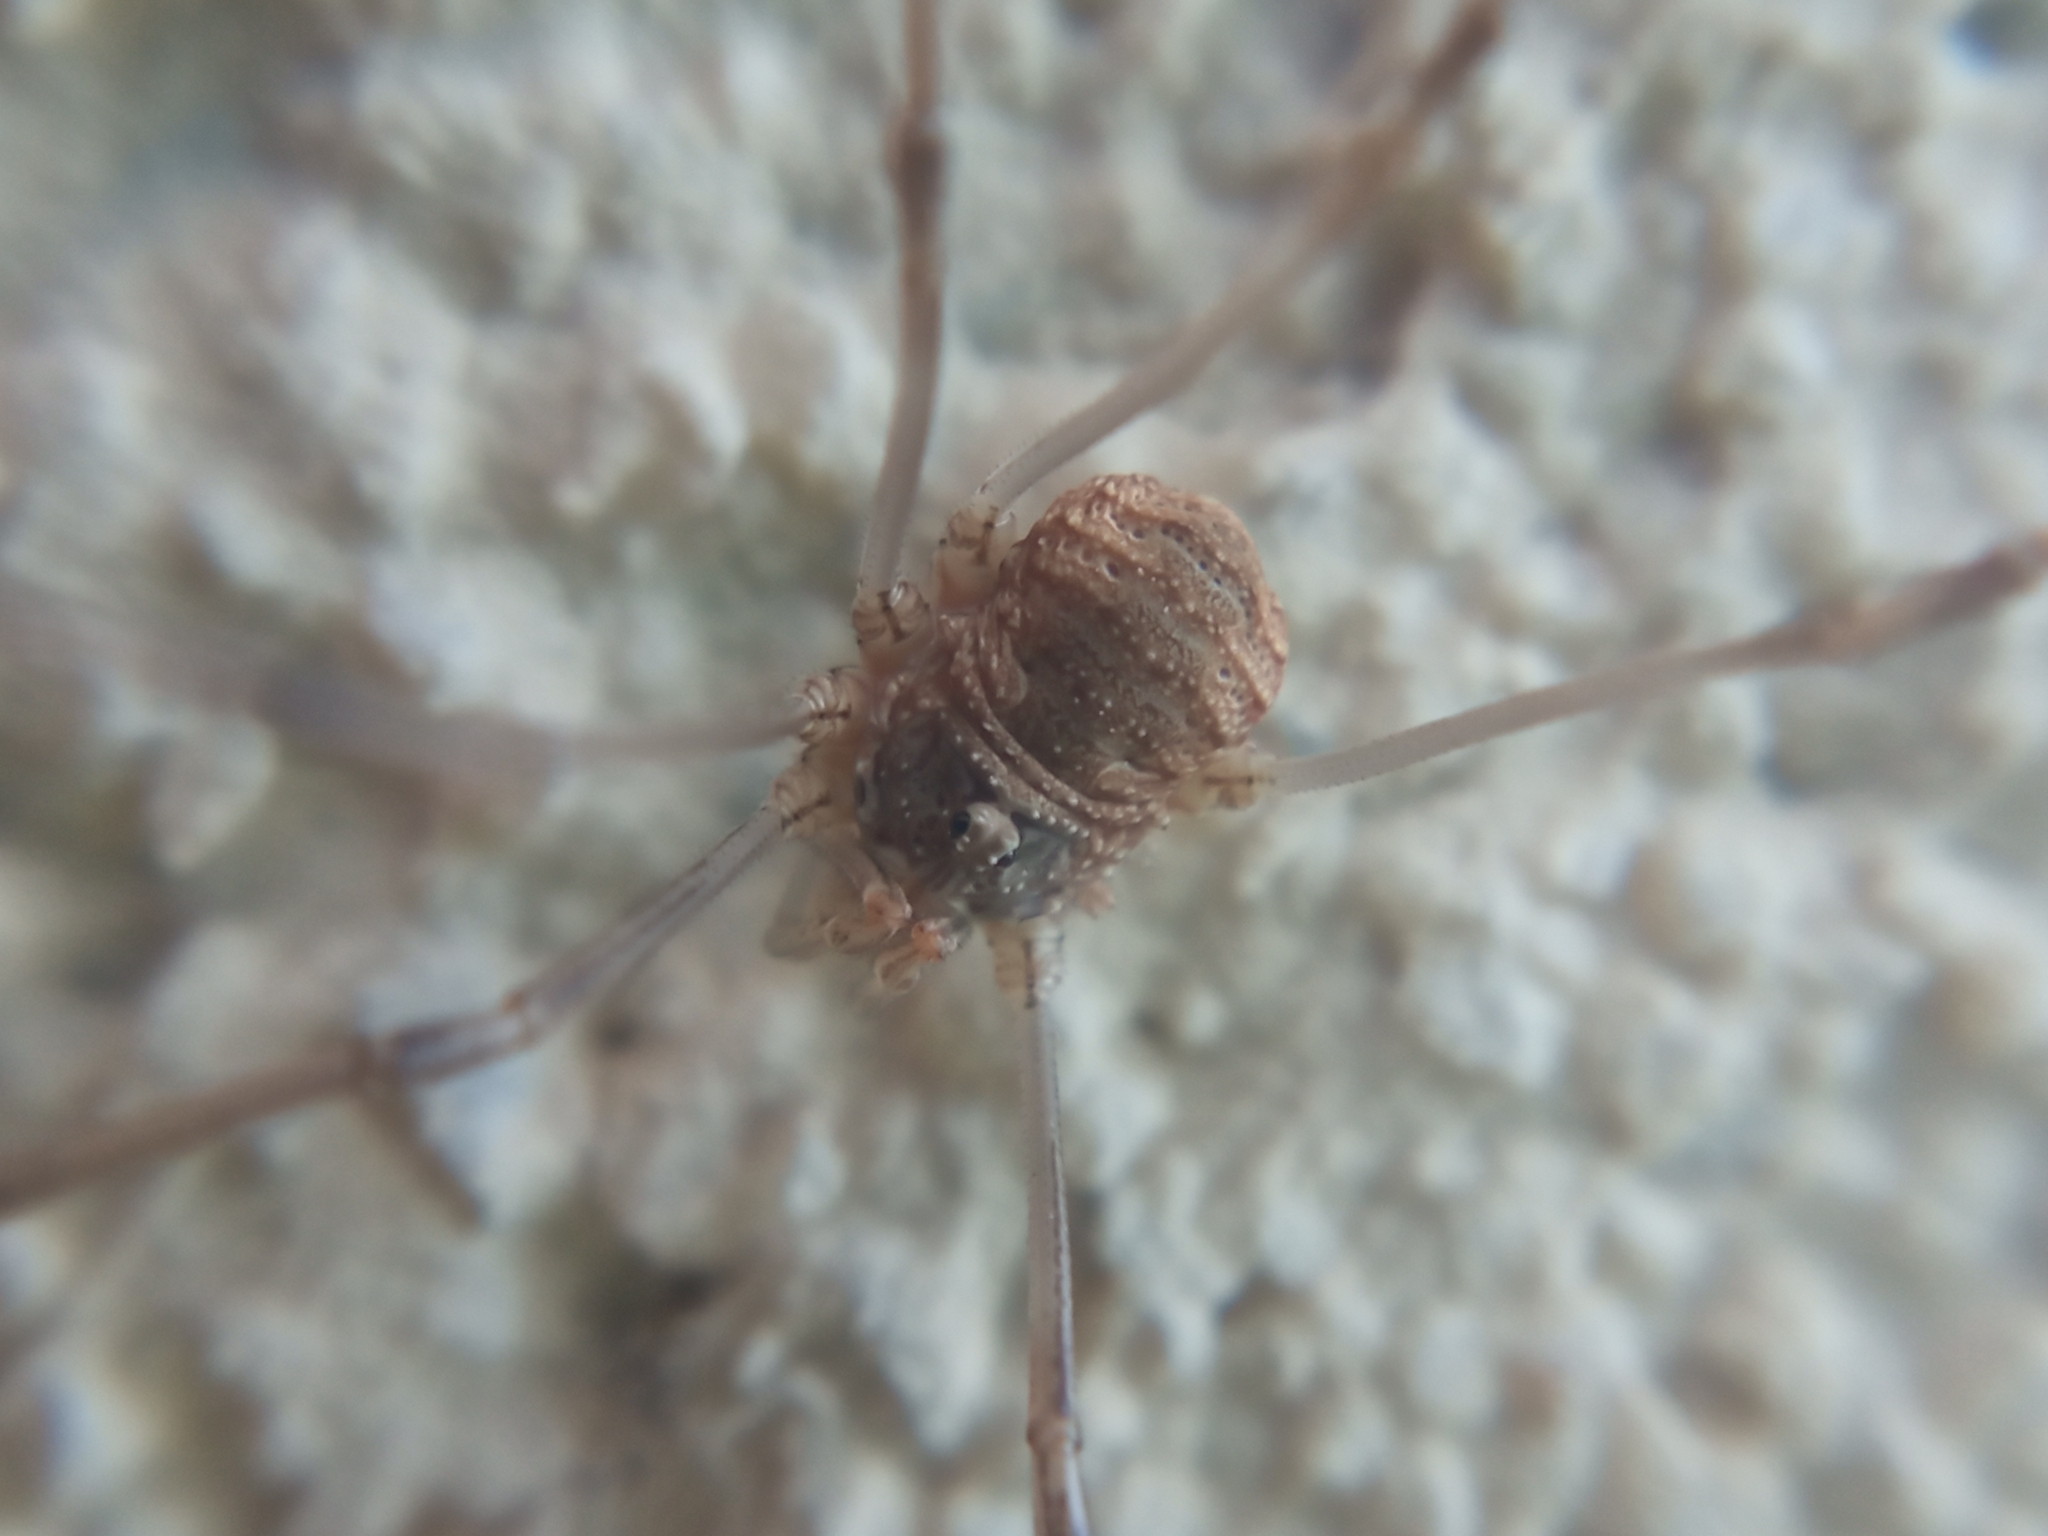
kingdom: Animalia
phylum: Arthropoda
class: Arachnida
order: Opiliones
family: Phalangiidae
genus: Phalangium
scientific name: Phalangium opilio
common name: Daddy longleg
